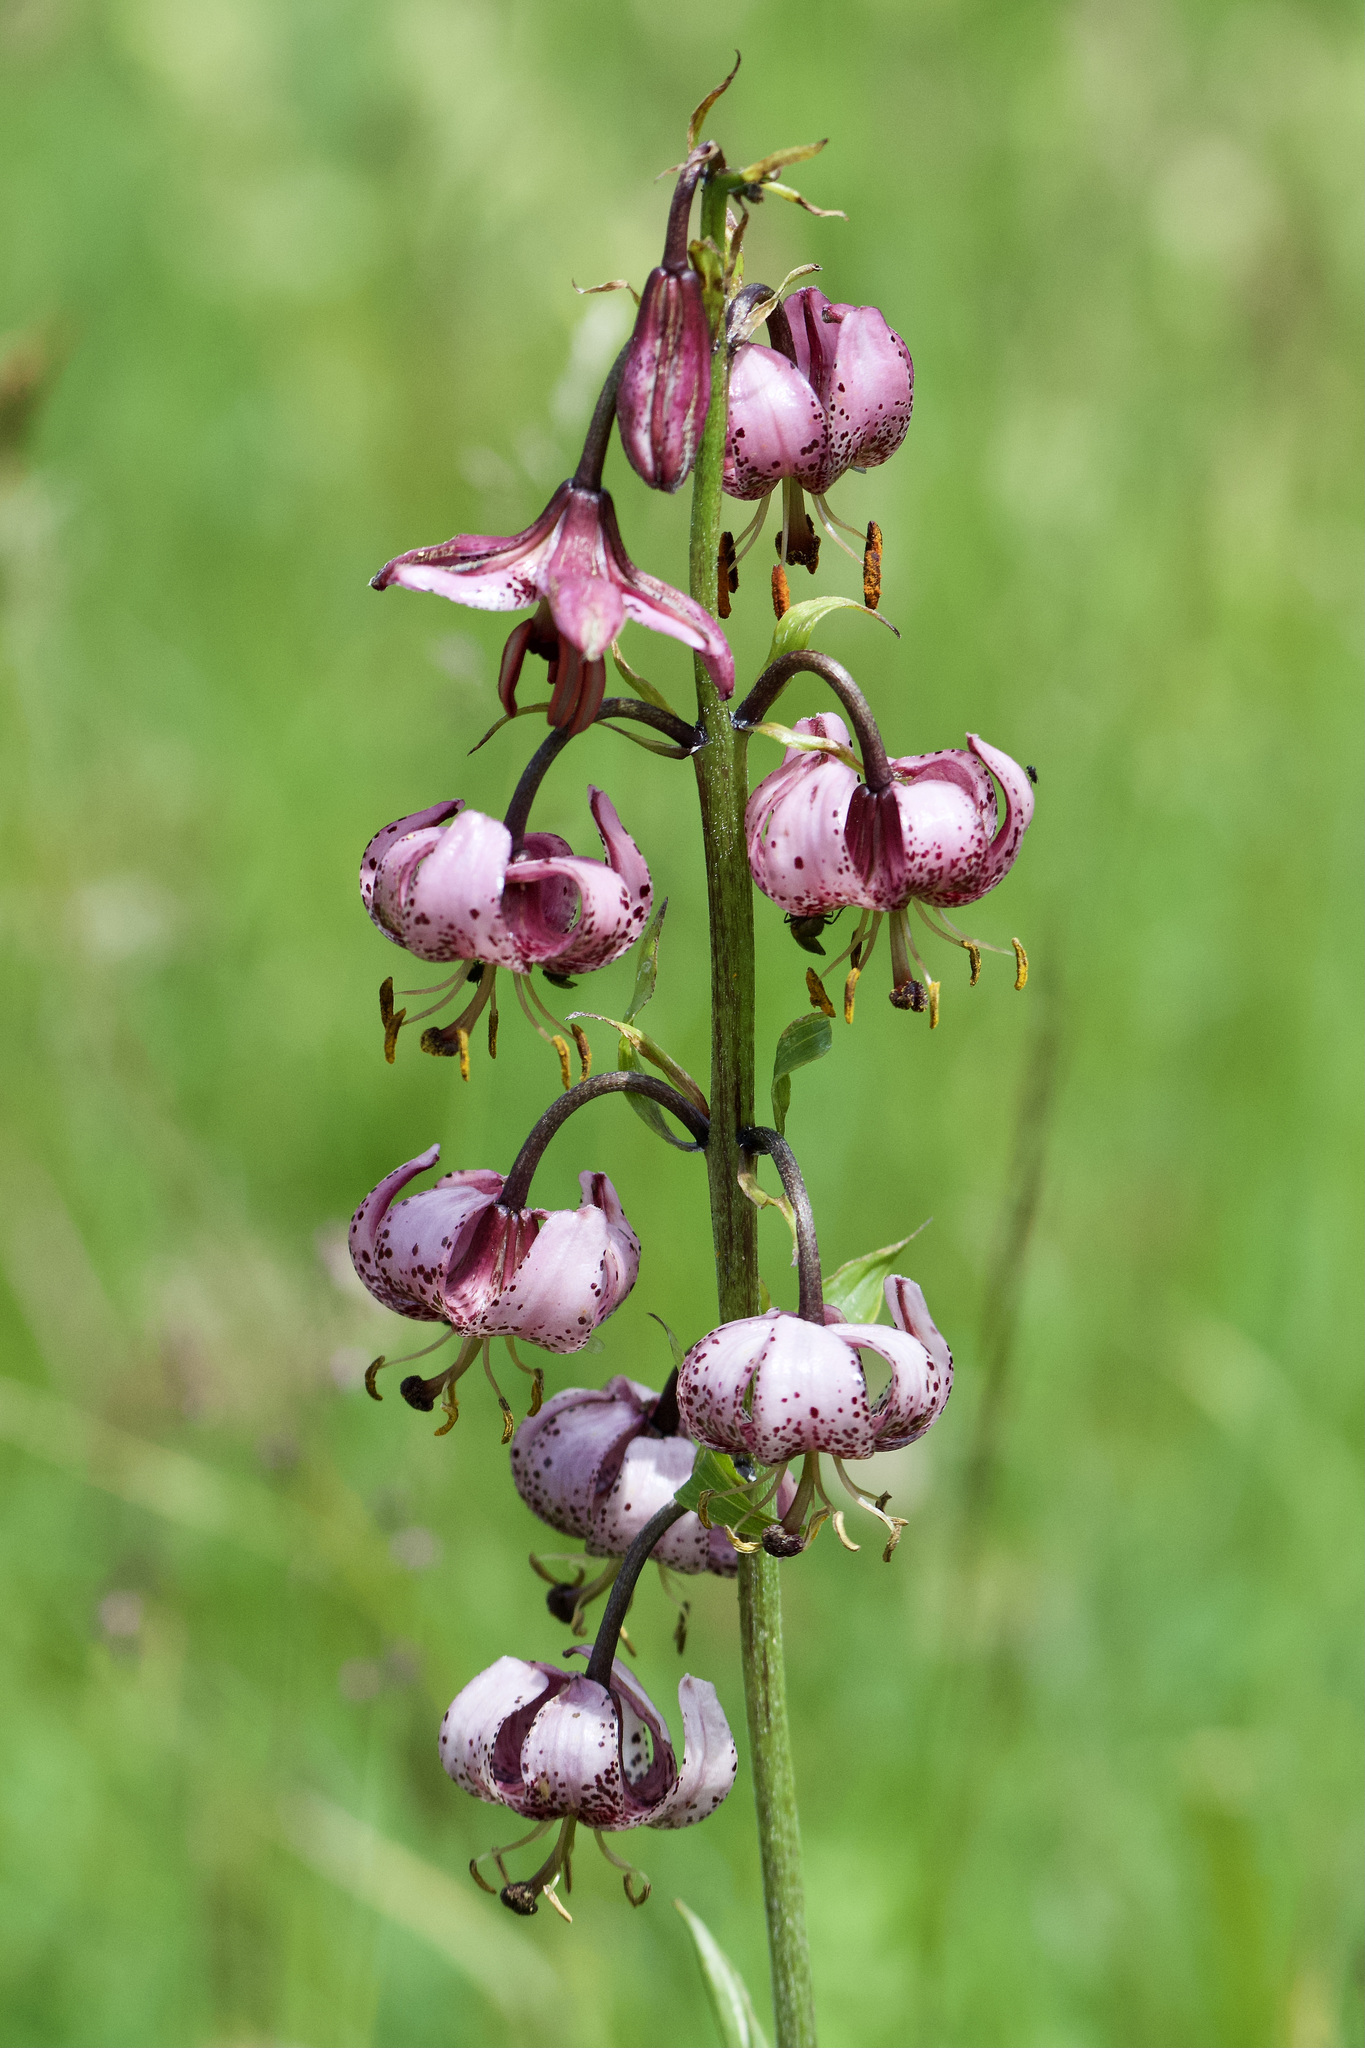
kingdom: Plantae
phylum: Tracheophyta
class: Liliopsida
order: Liliales
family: Liliaceae
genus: Lilium
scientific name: Lilium martagon
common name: Martagon lily
